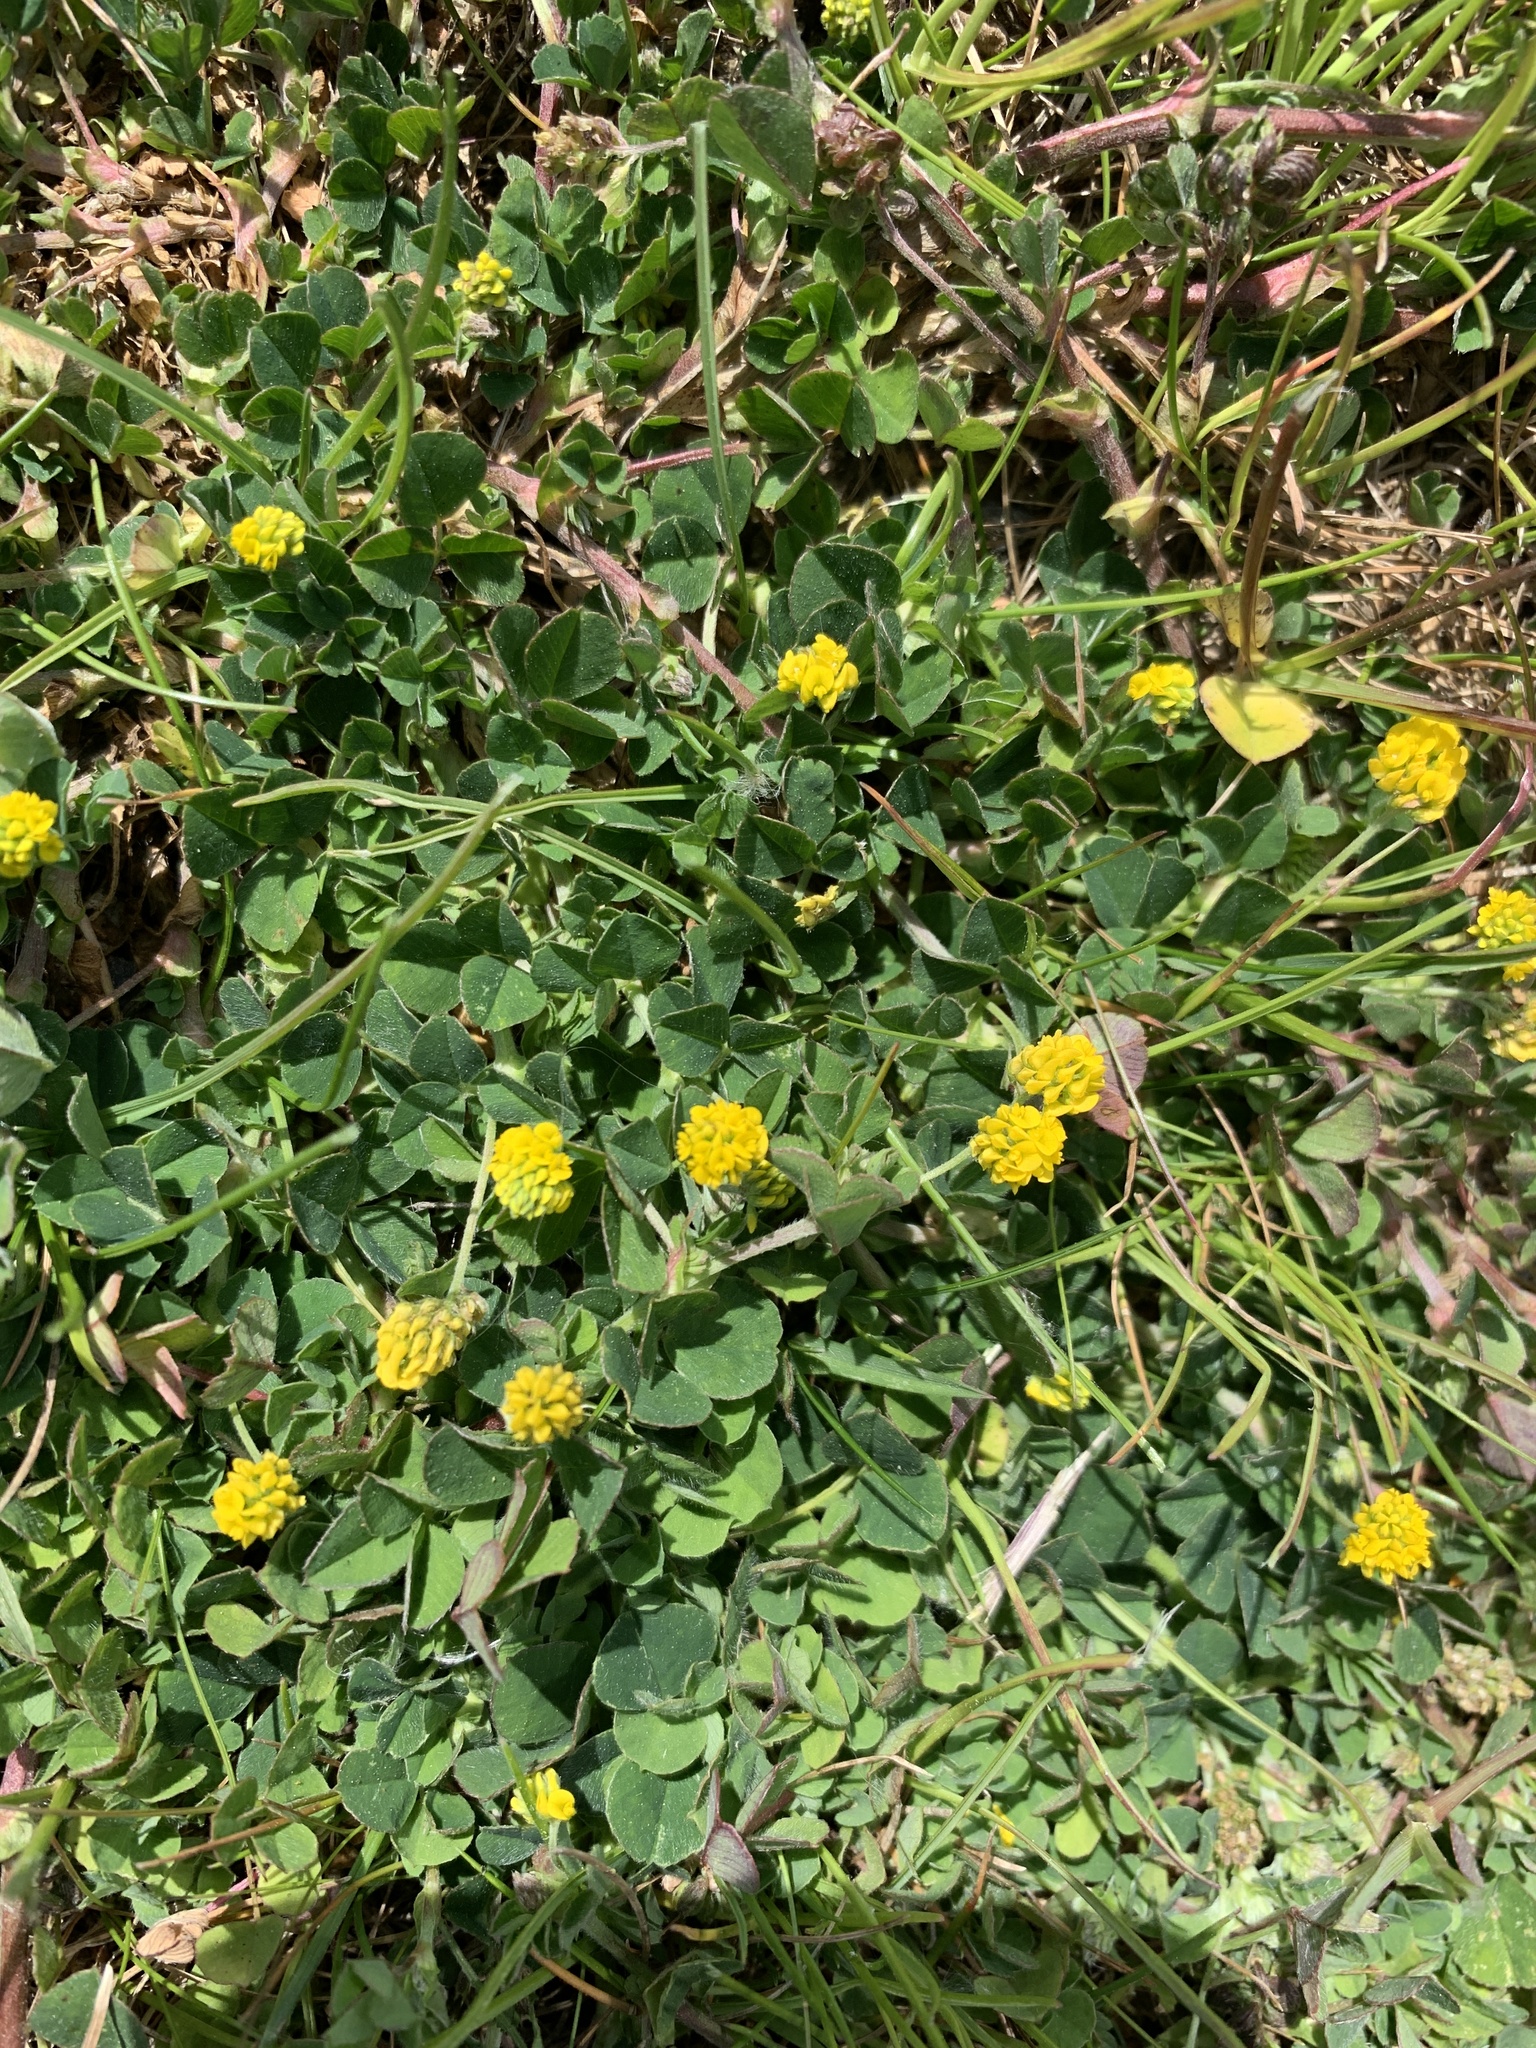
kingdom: Plantae
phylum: Tracheophyta
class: Magnoliopsida
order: Fabales
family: Fabaceae
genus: Medicago
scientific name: Medicago lupulina
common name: Black medick
